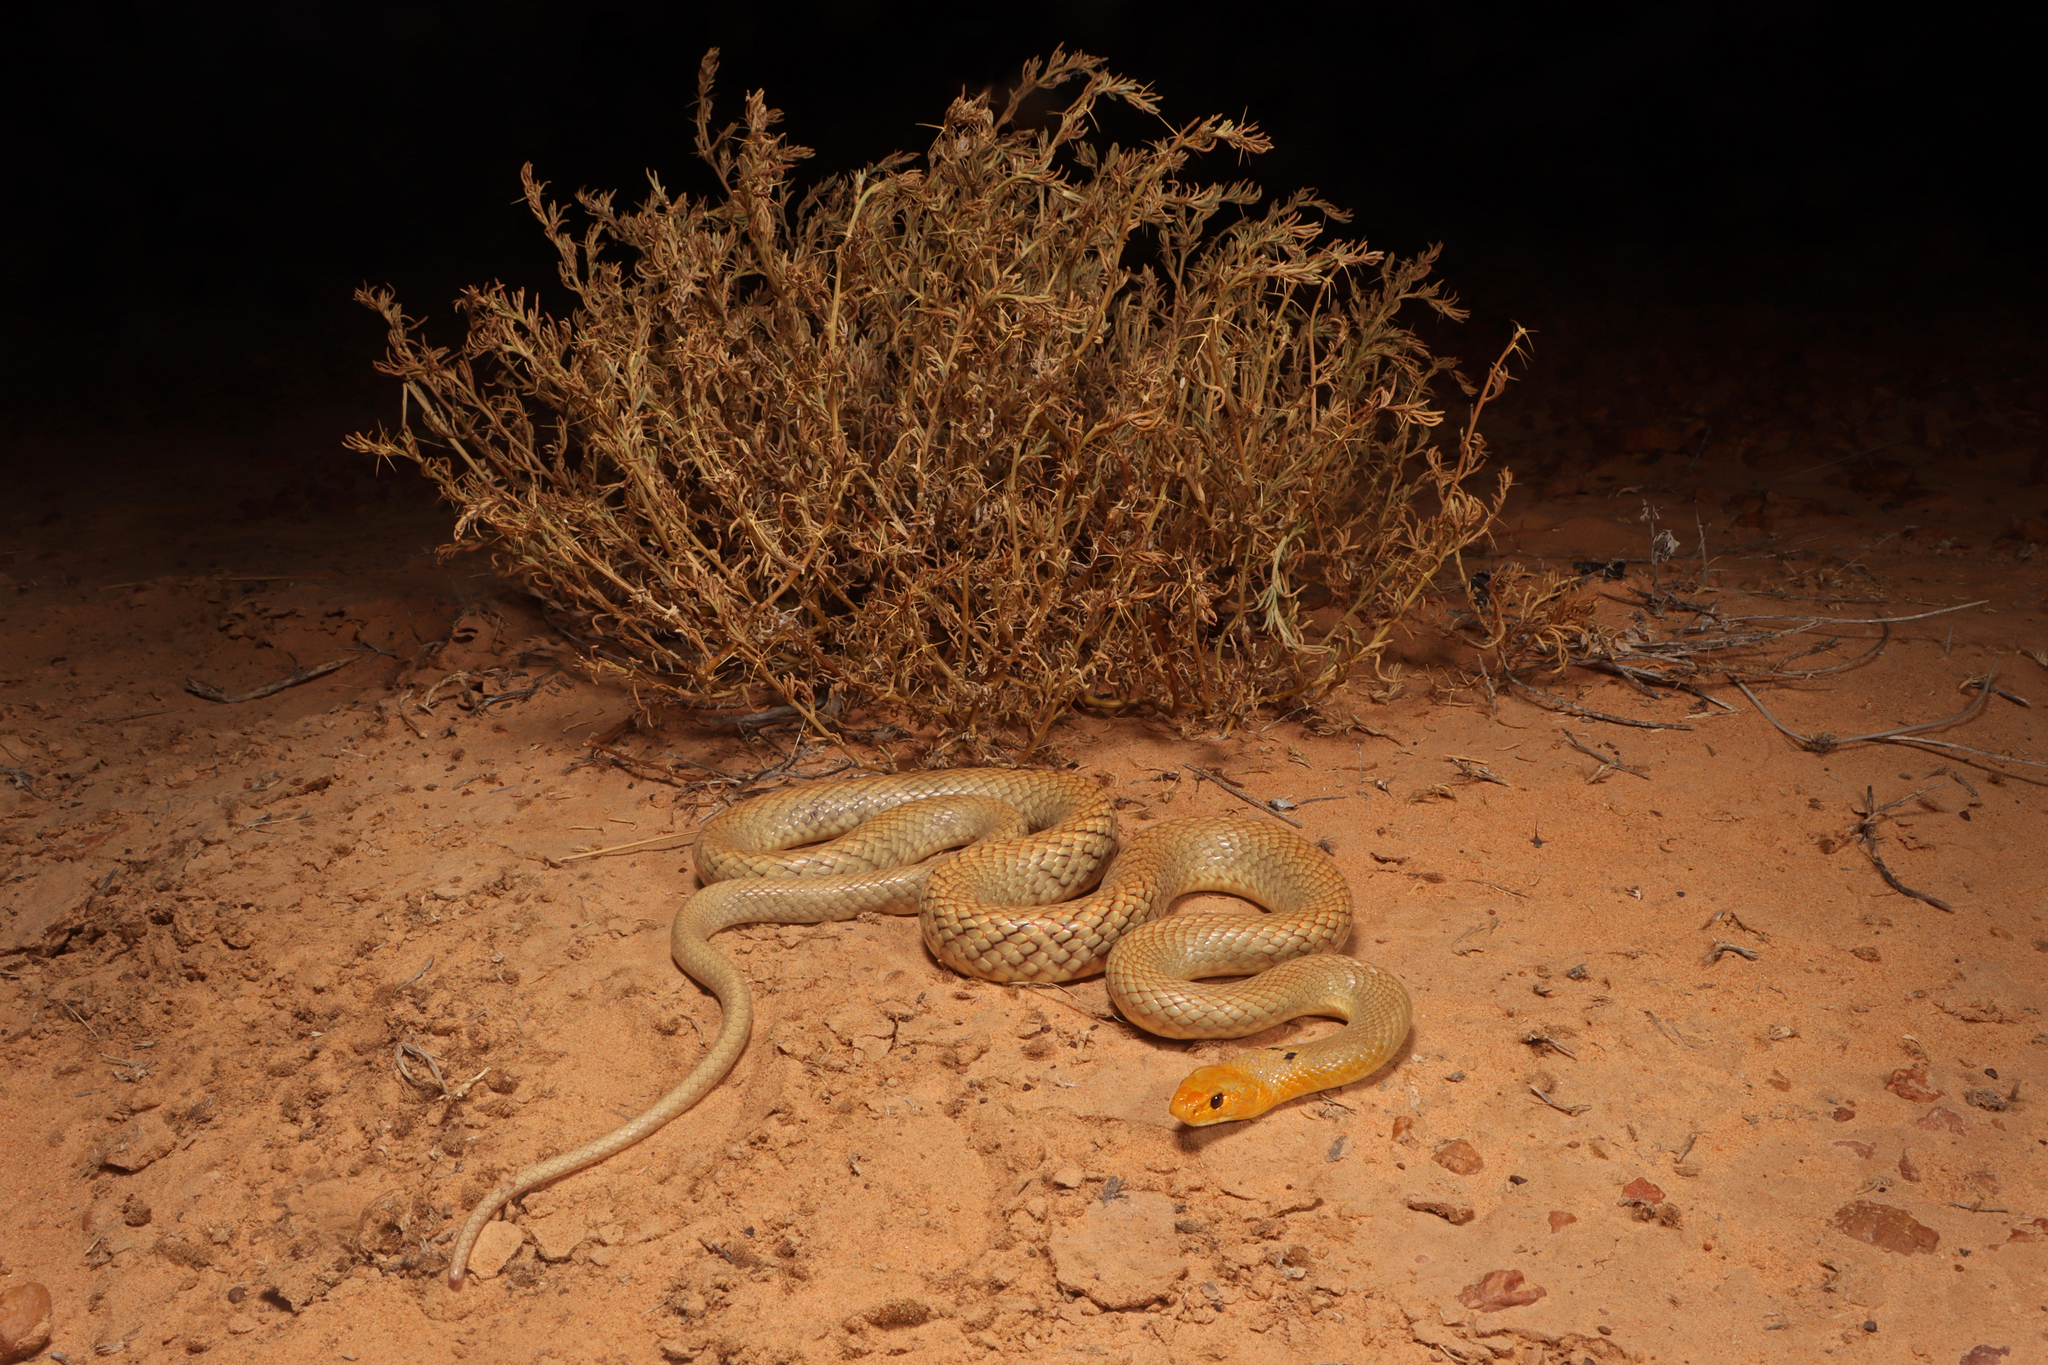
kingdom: Animalia
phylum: Chordata
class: Squamata
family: Elapidae
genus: Pseudonaja
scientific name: Pseudonaja mengdeni
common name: Gwardar
